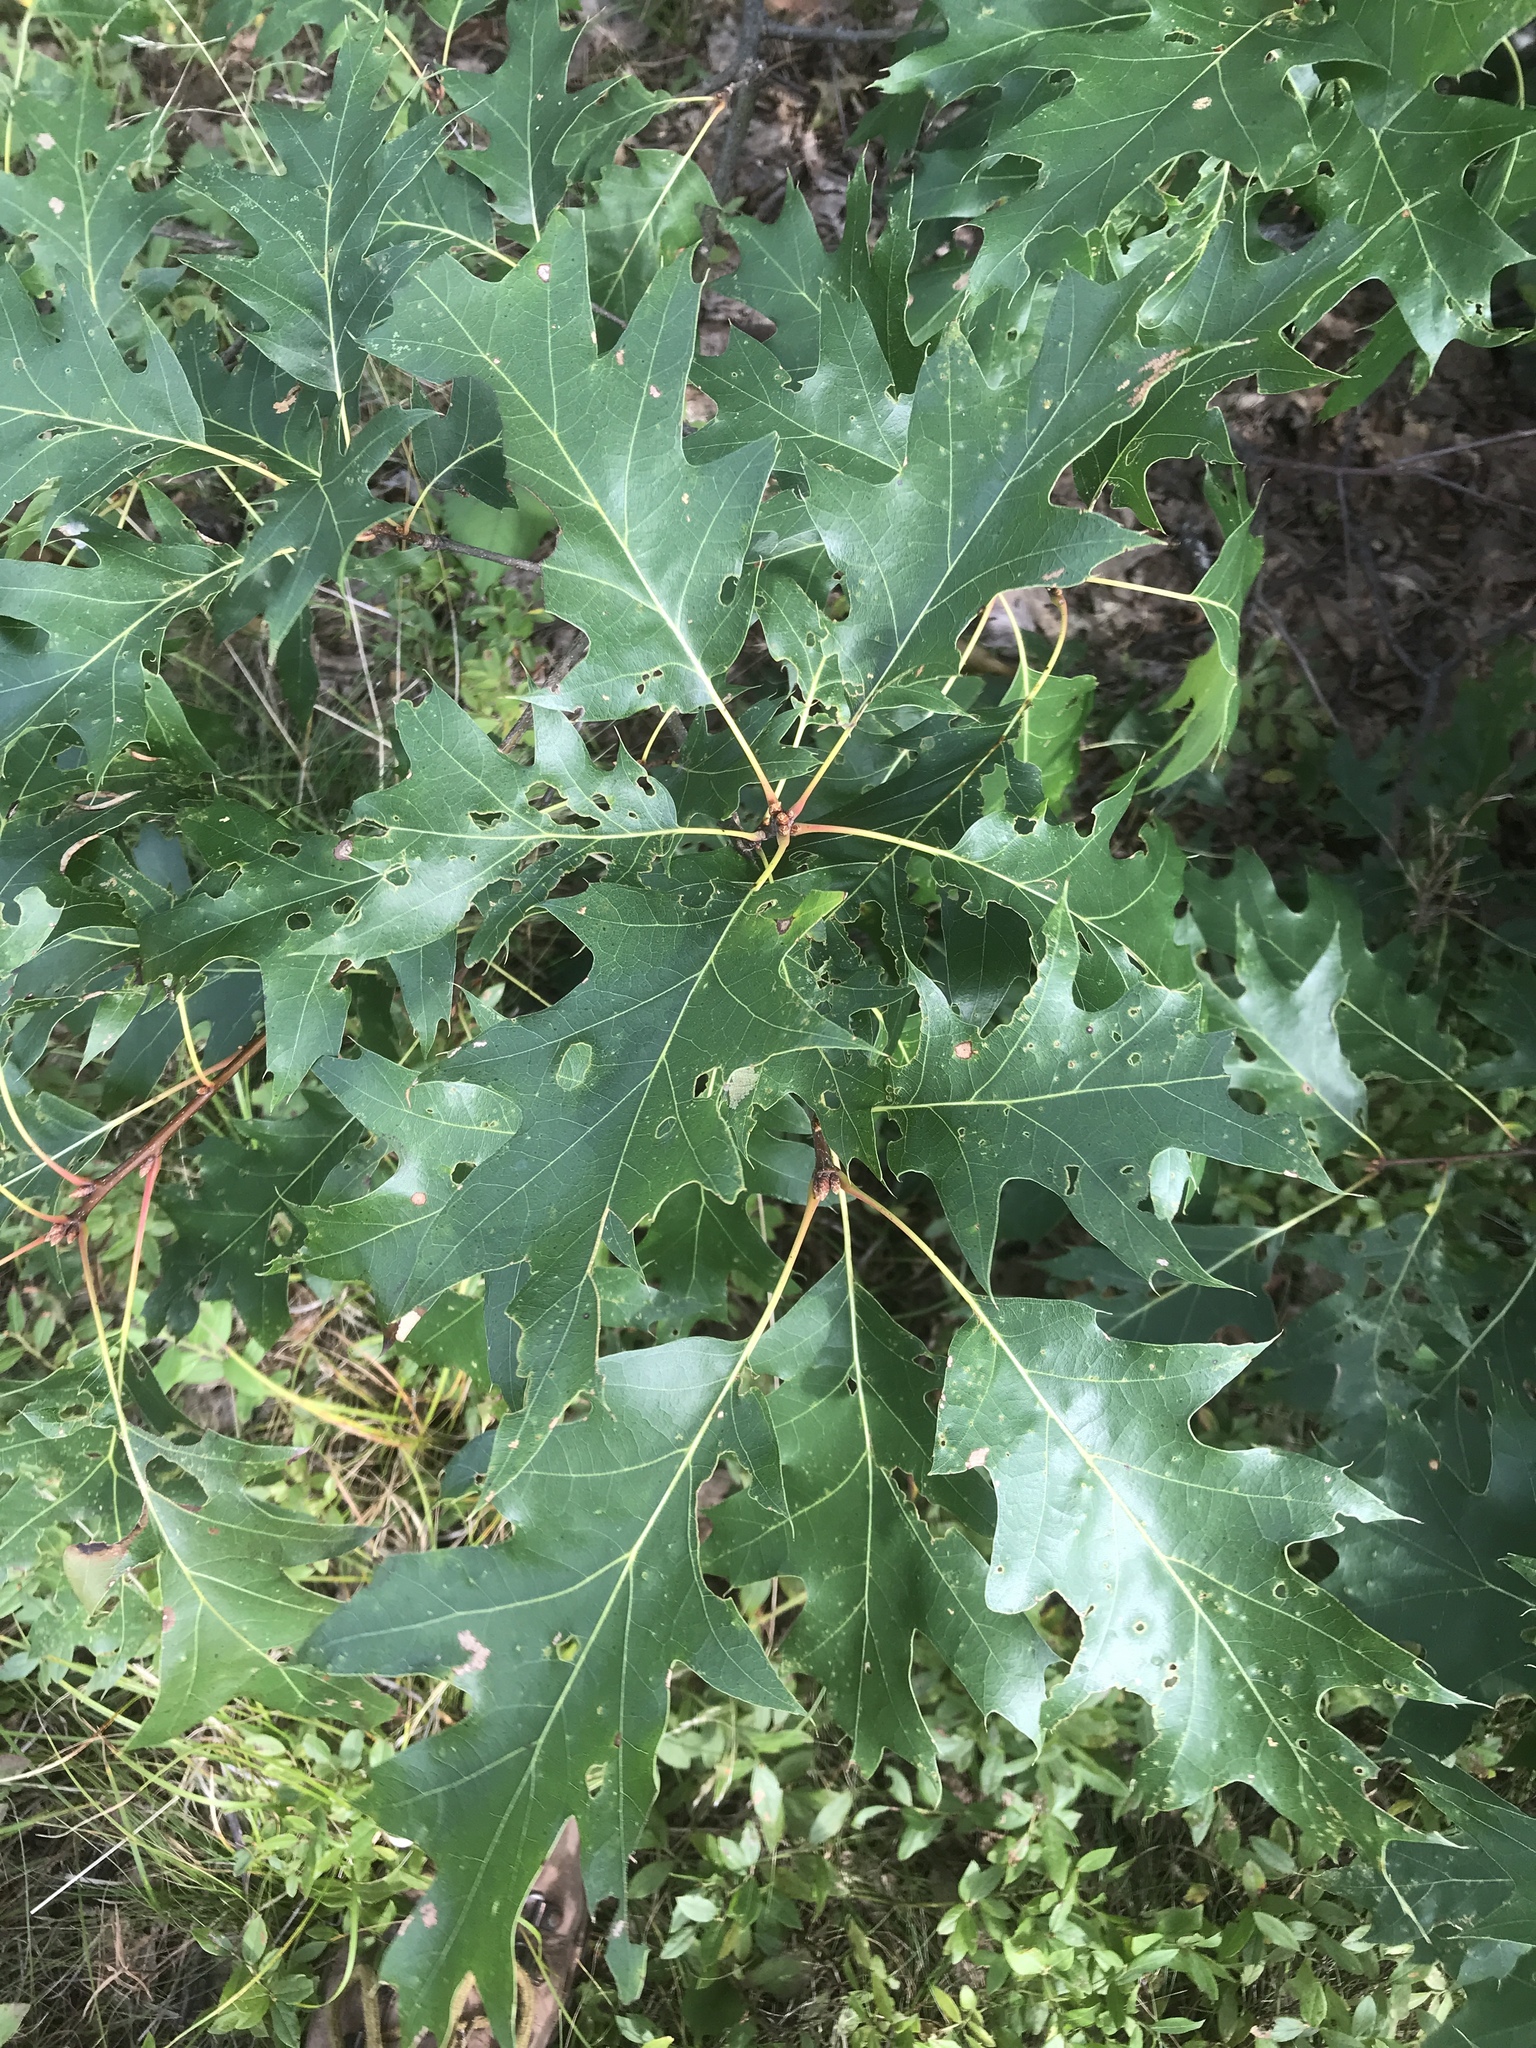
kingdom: Plantae
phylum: Tracheophyta
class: Magnoliopsida
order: Fagales
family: Fagaceae
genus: Quercus
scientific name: Quercus rubra
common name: Red oak
